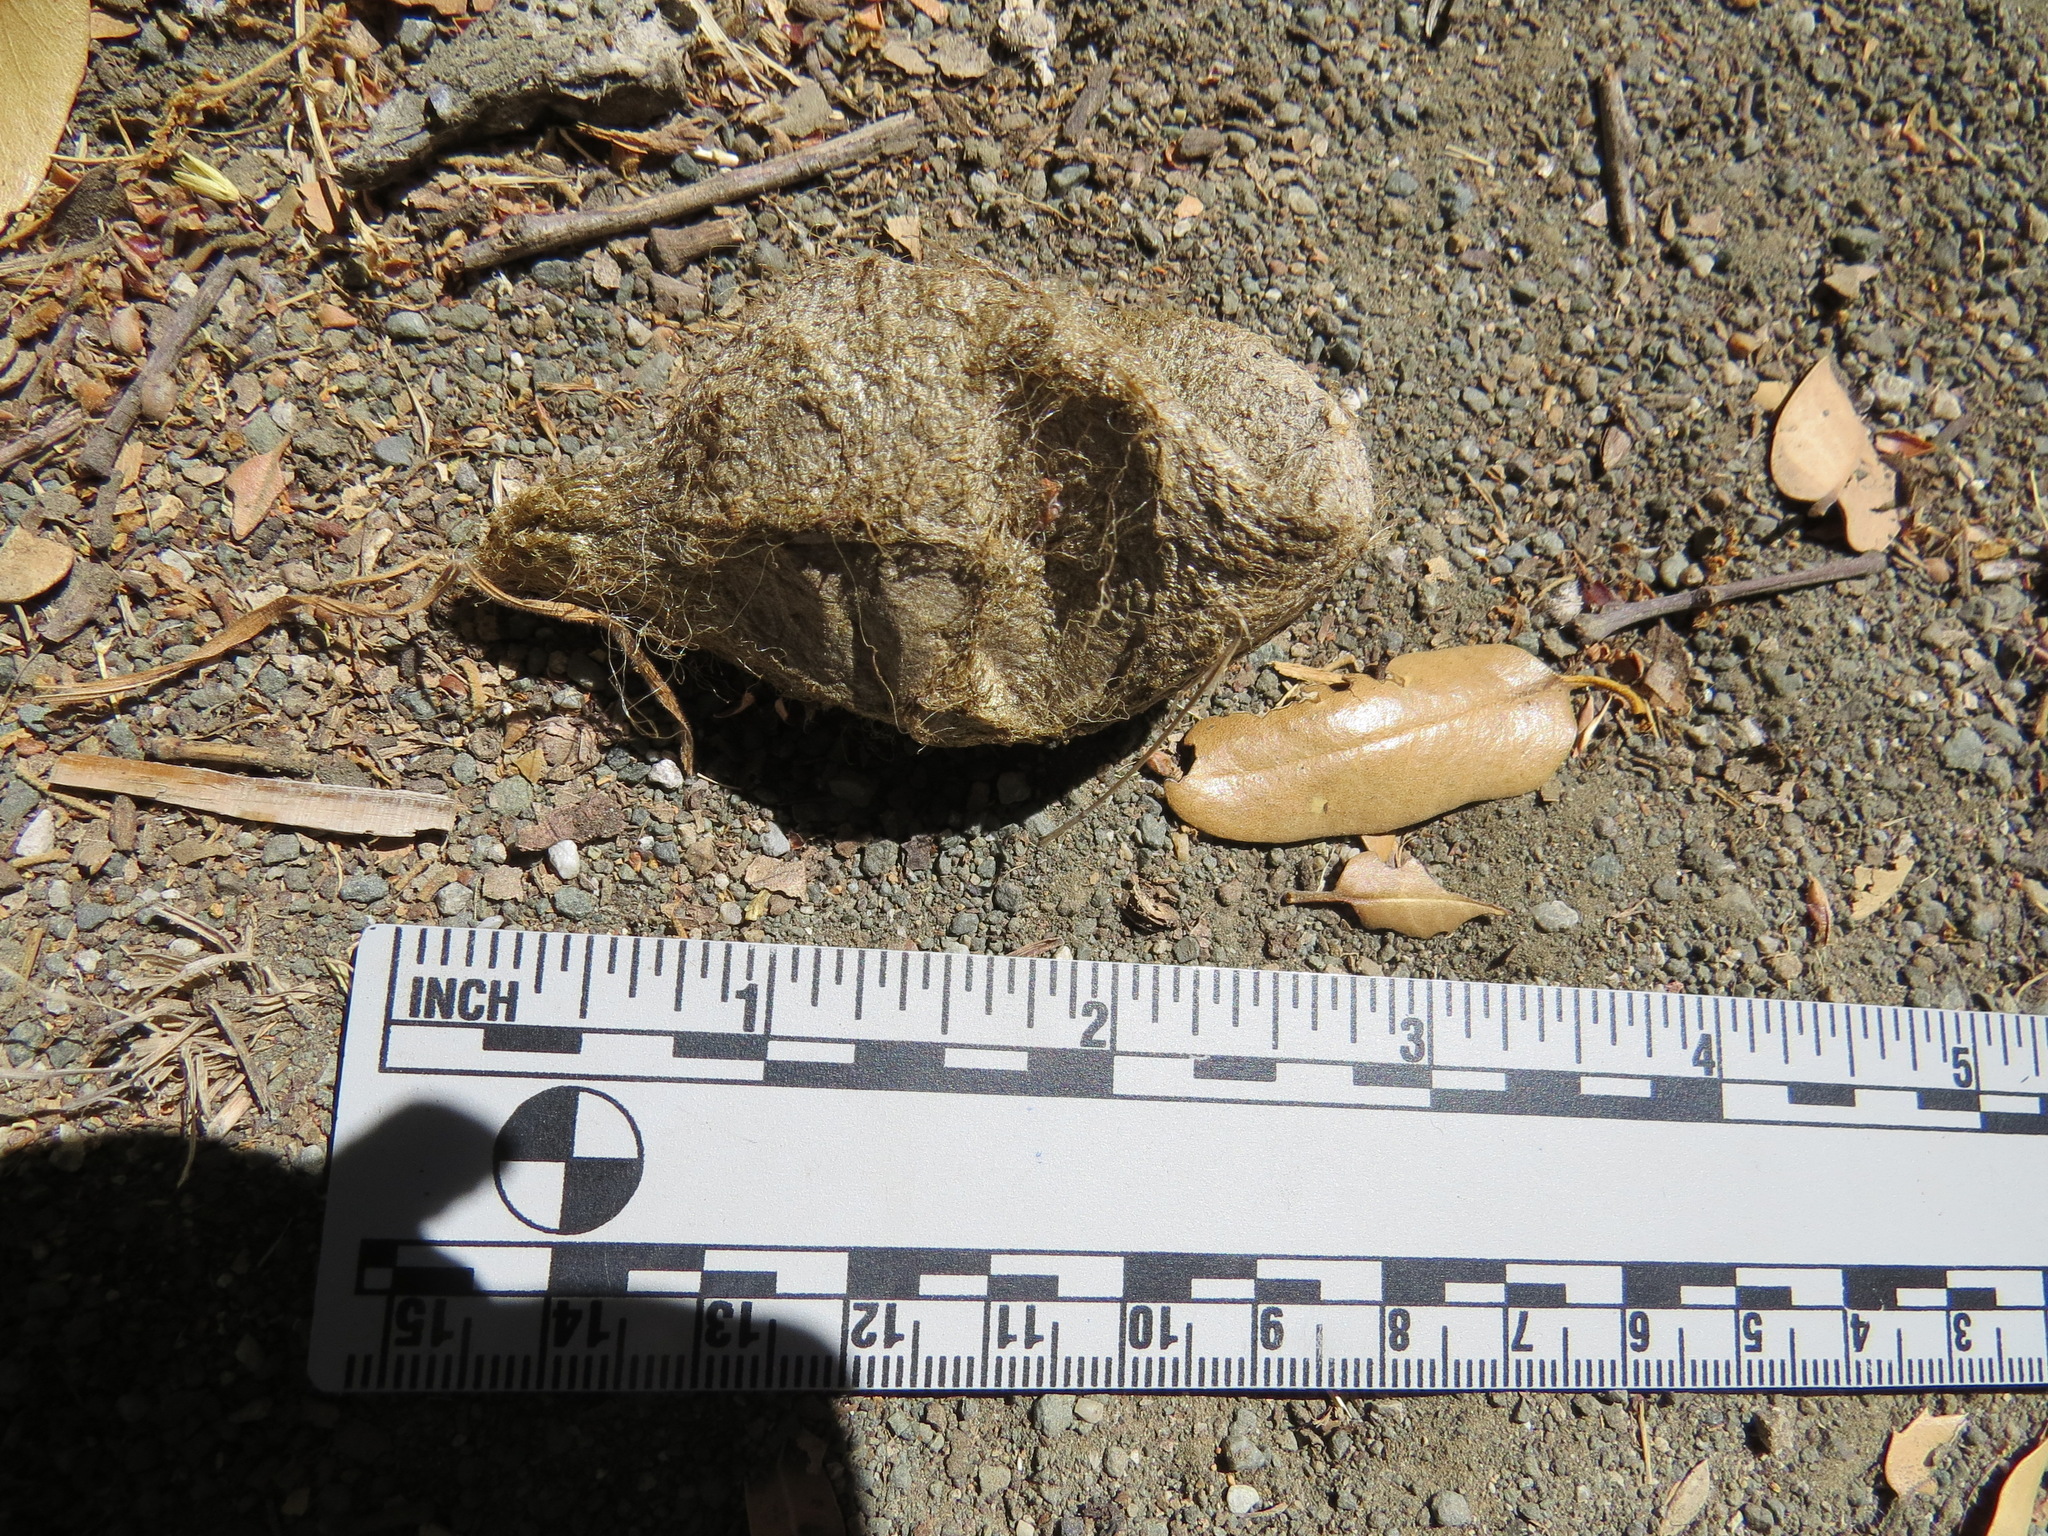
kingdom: Animalia
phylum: Arthropoda
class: Insecta
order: Lepidoptera
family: Saturniidae
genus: Hyalophora
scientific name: Hyalophora euryalus
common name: Ceanothus silkmoth
